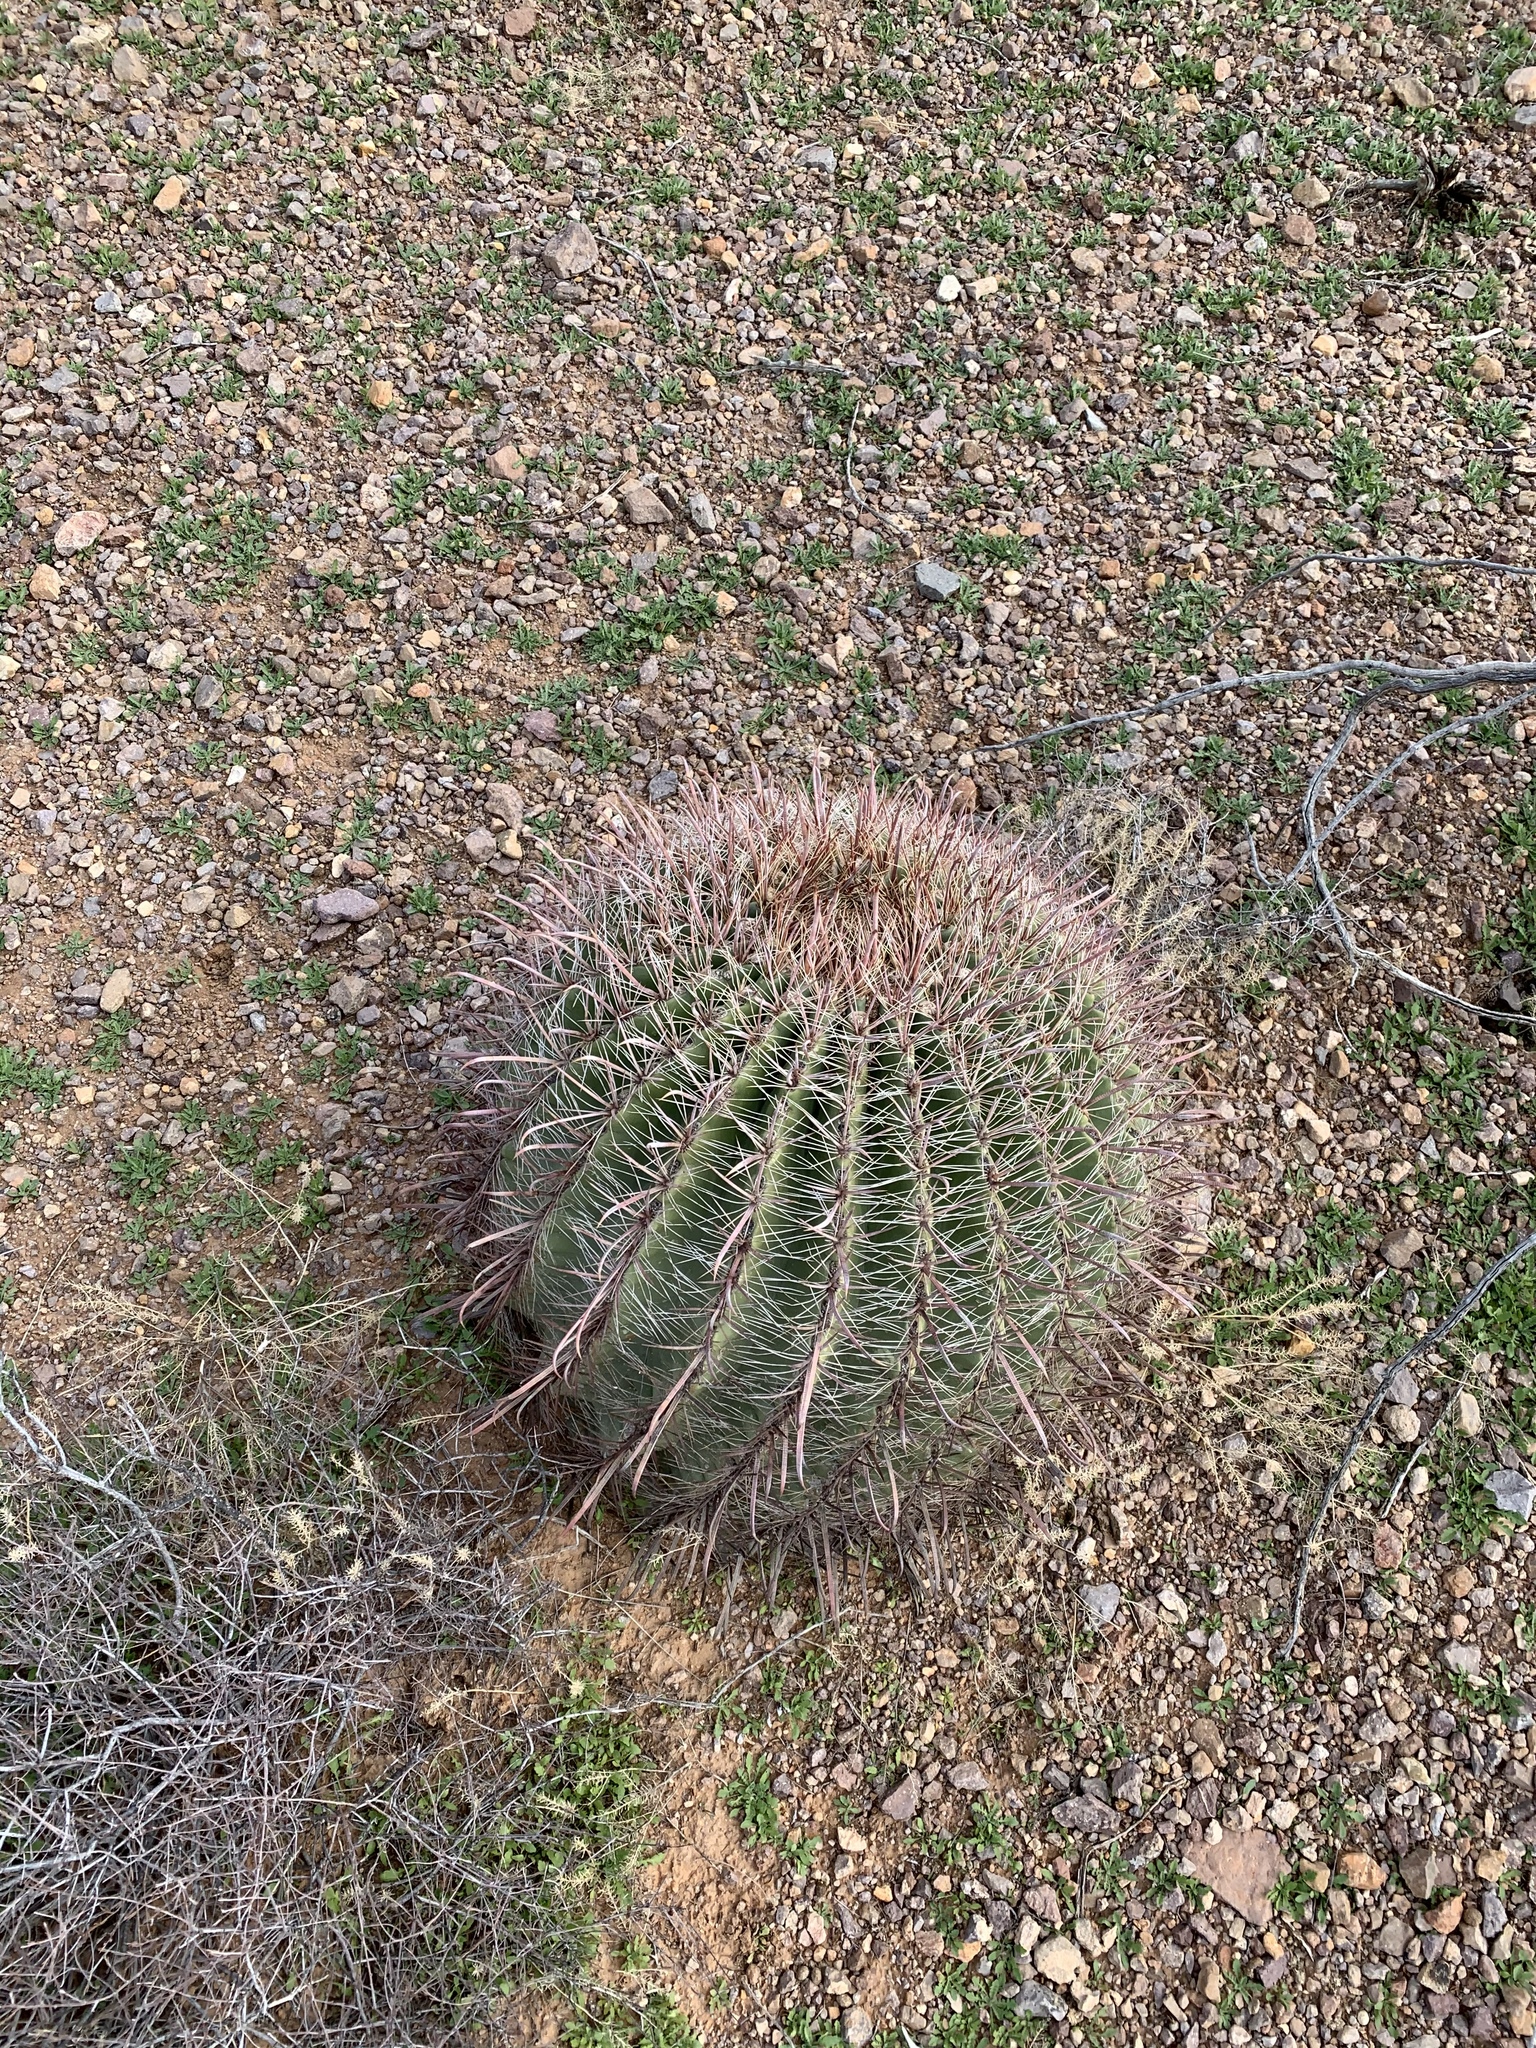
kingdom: Plantae
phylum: Tracheophyta
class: Magnoliopsida
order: Caryophyllales
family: Cactaceae
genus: Ferocactus
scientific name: Ferocactus wislizeni
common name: Candy barrel cactus
